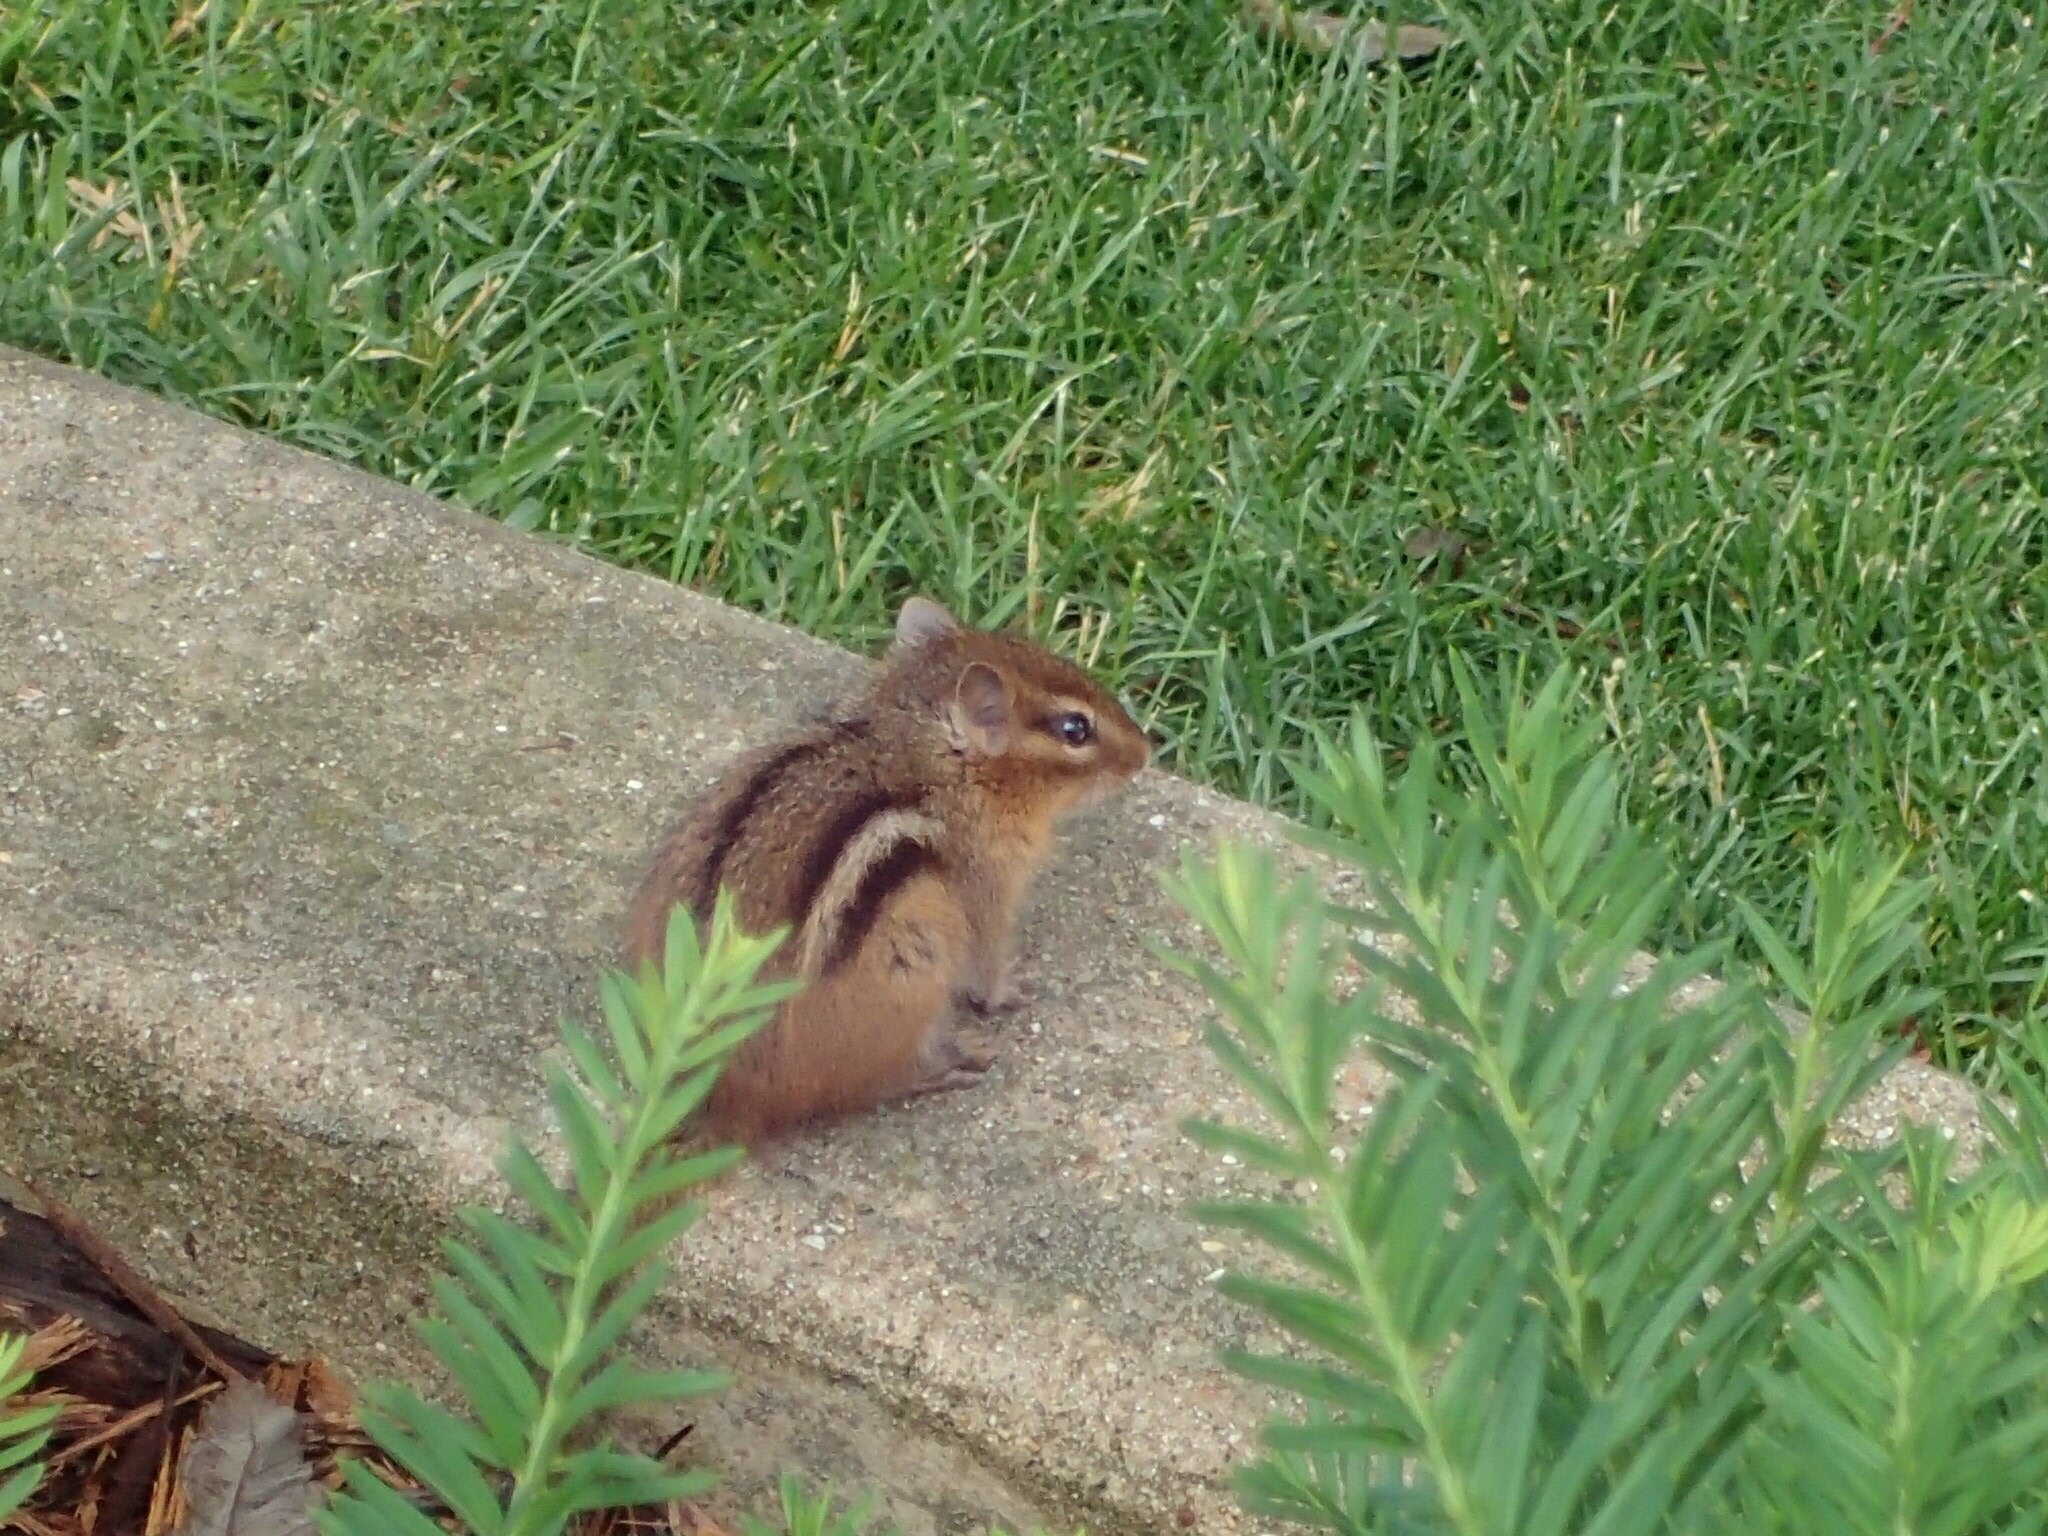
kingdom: Animalia
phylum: Chordata
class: Mammalia
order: Rodentia
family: Sciuridae
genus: Tamias
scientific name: Tamias striatus
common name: Eastern chipmunk
